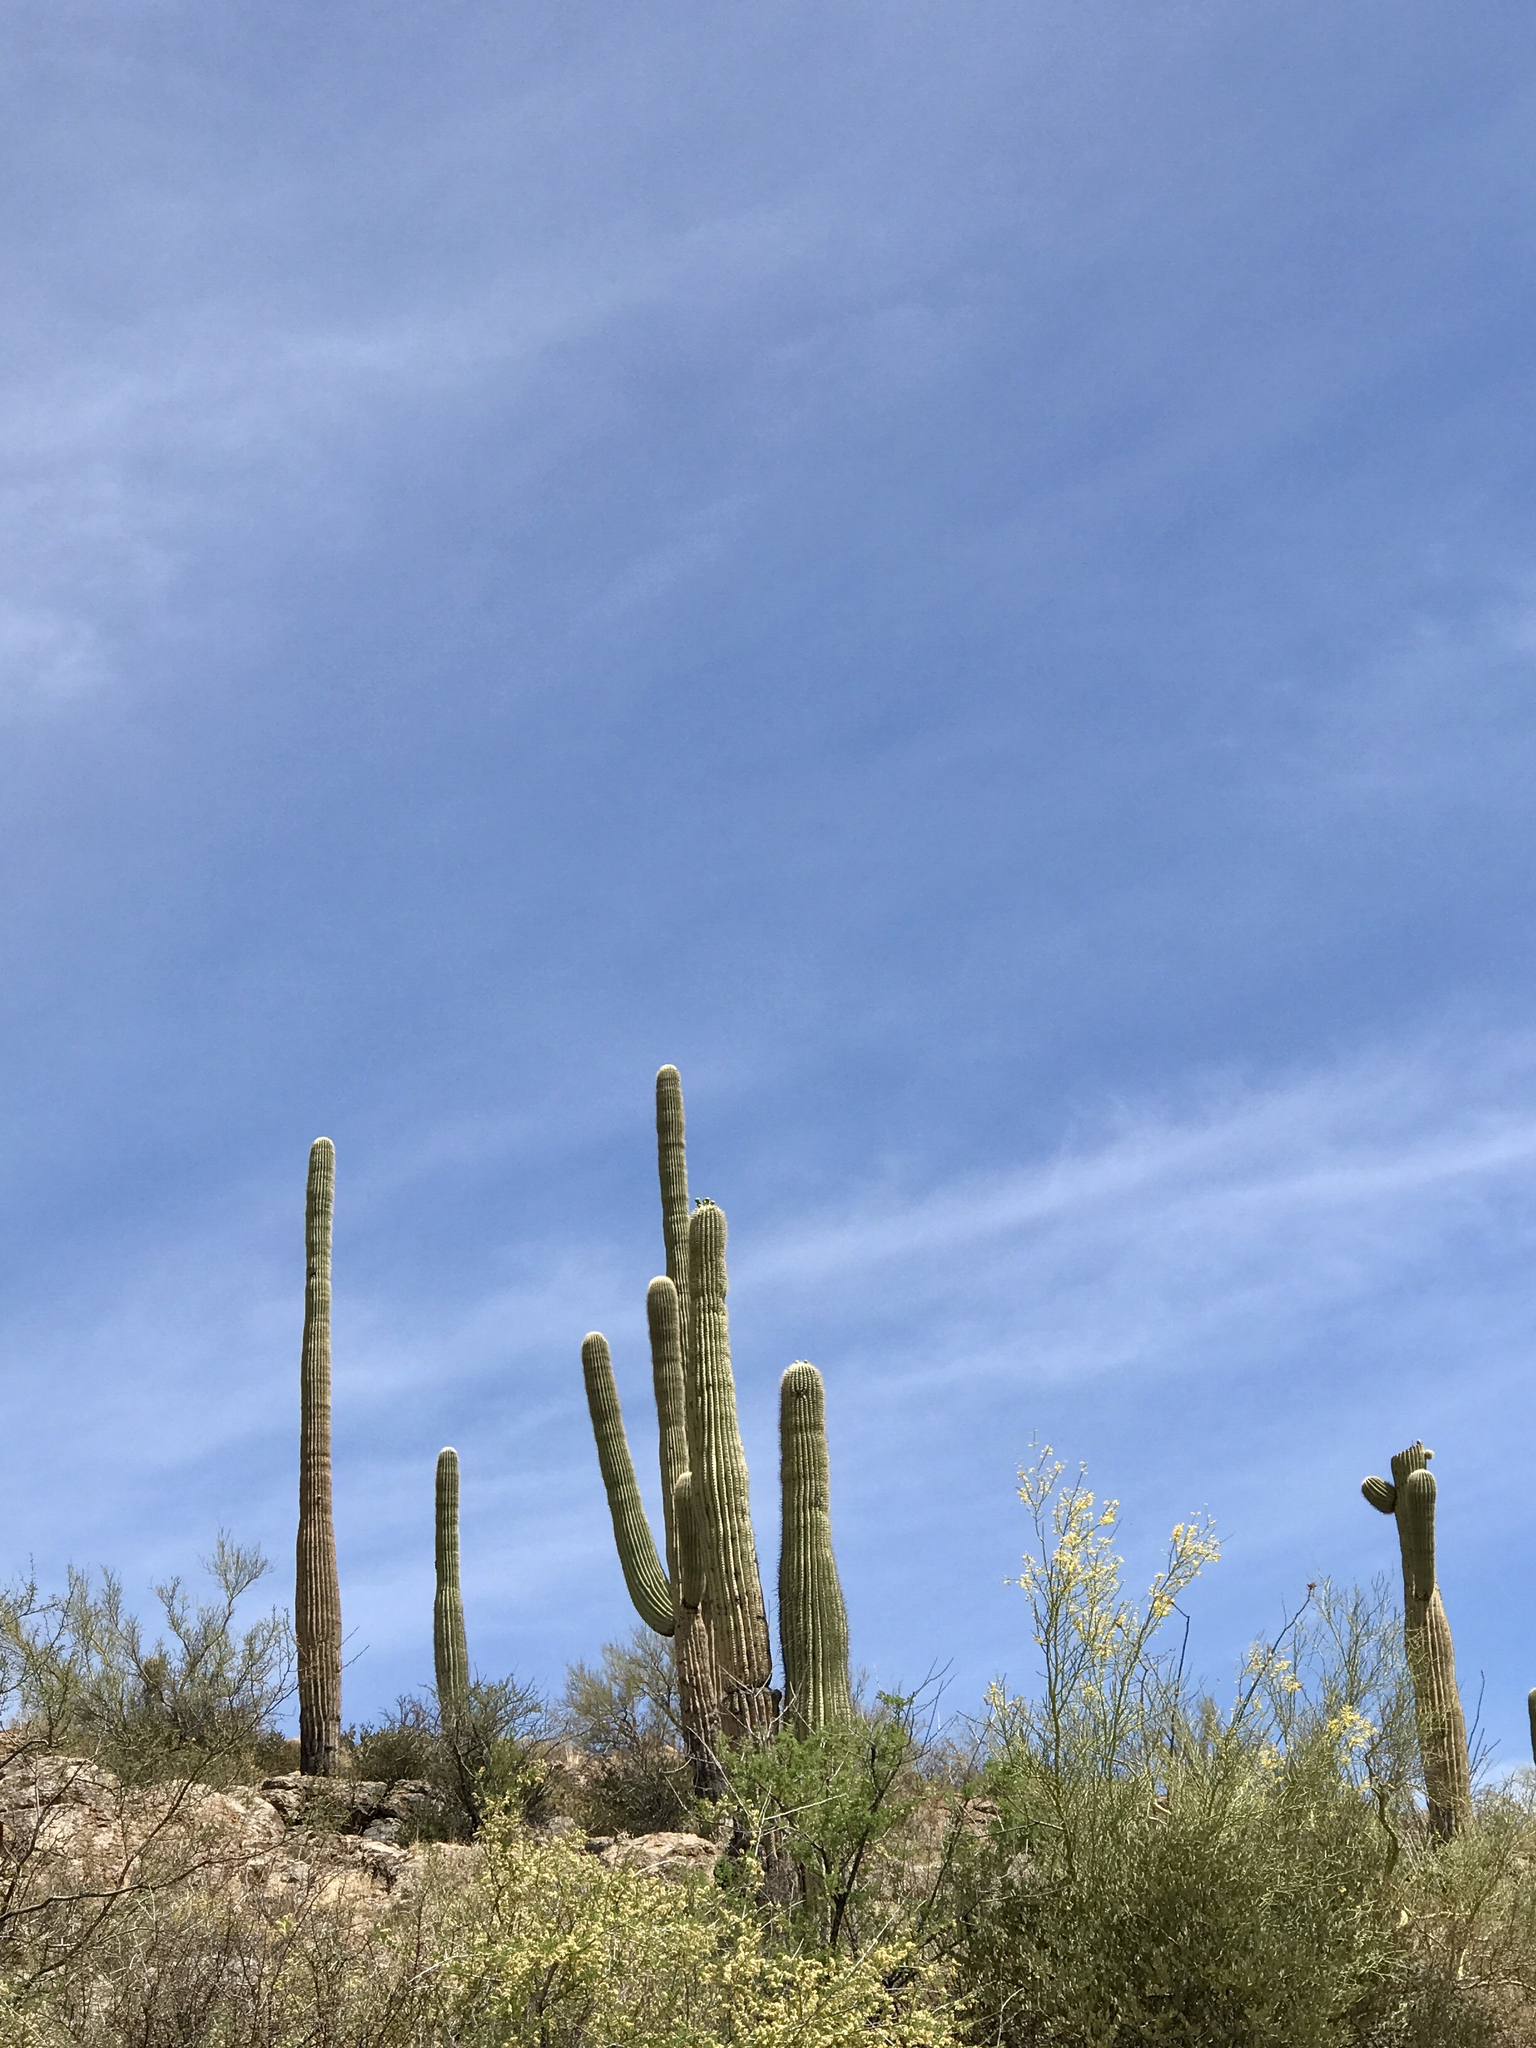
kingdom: Plantae
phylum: Tracheophyta
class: Magnoliopsida
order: Caryophyllales
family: Cactaceae
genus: Carnegiea
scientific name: Carnegiea gigantea
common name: Saguaro
